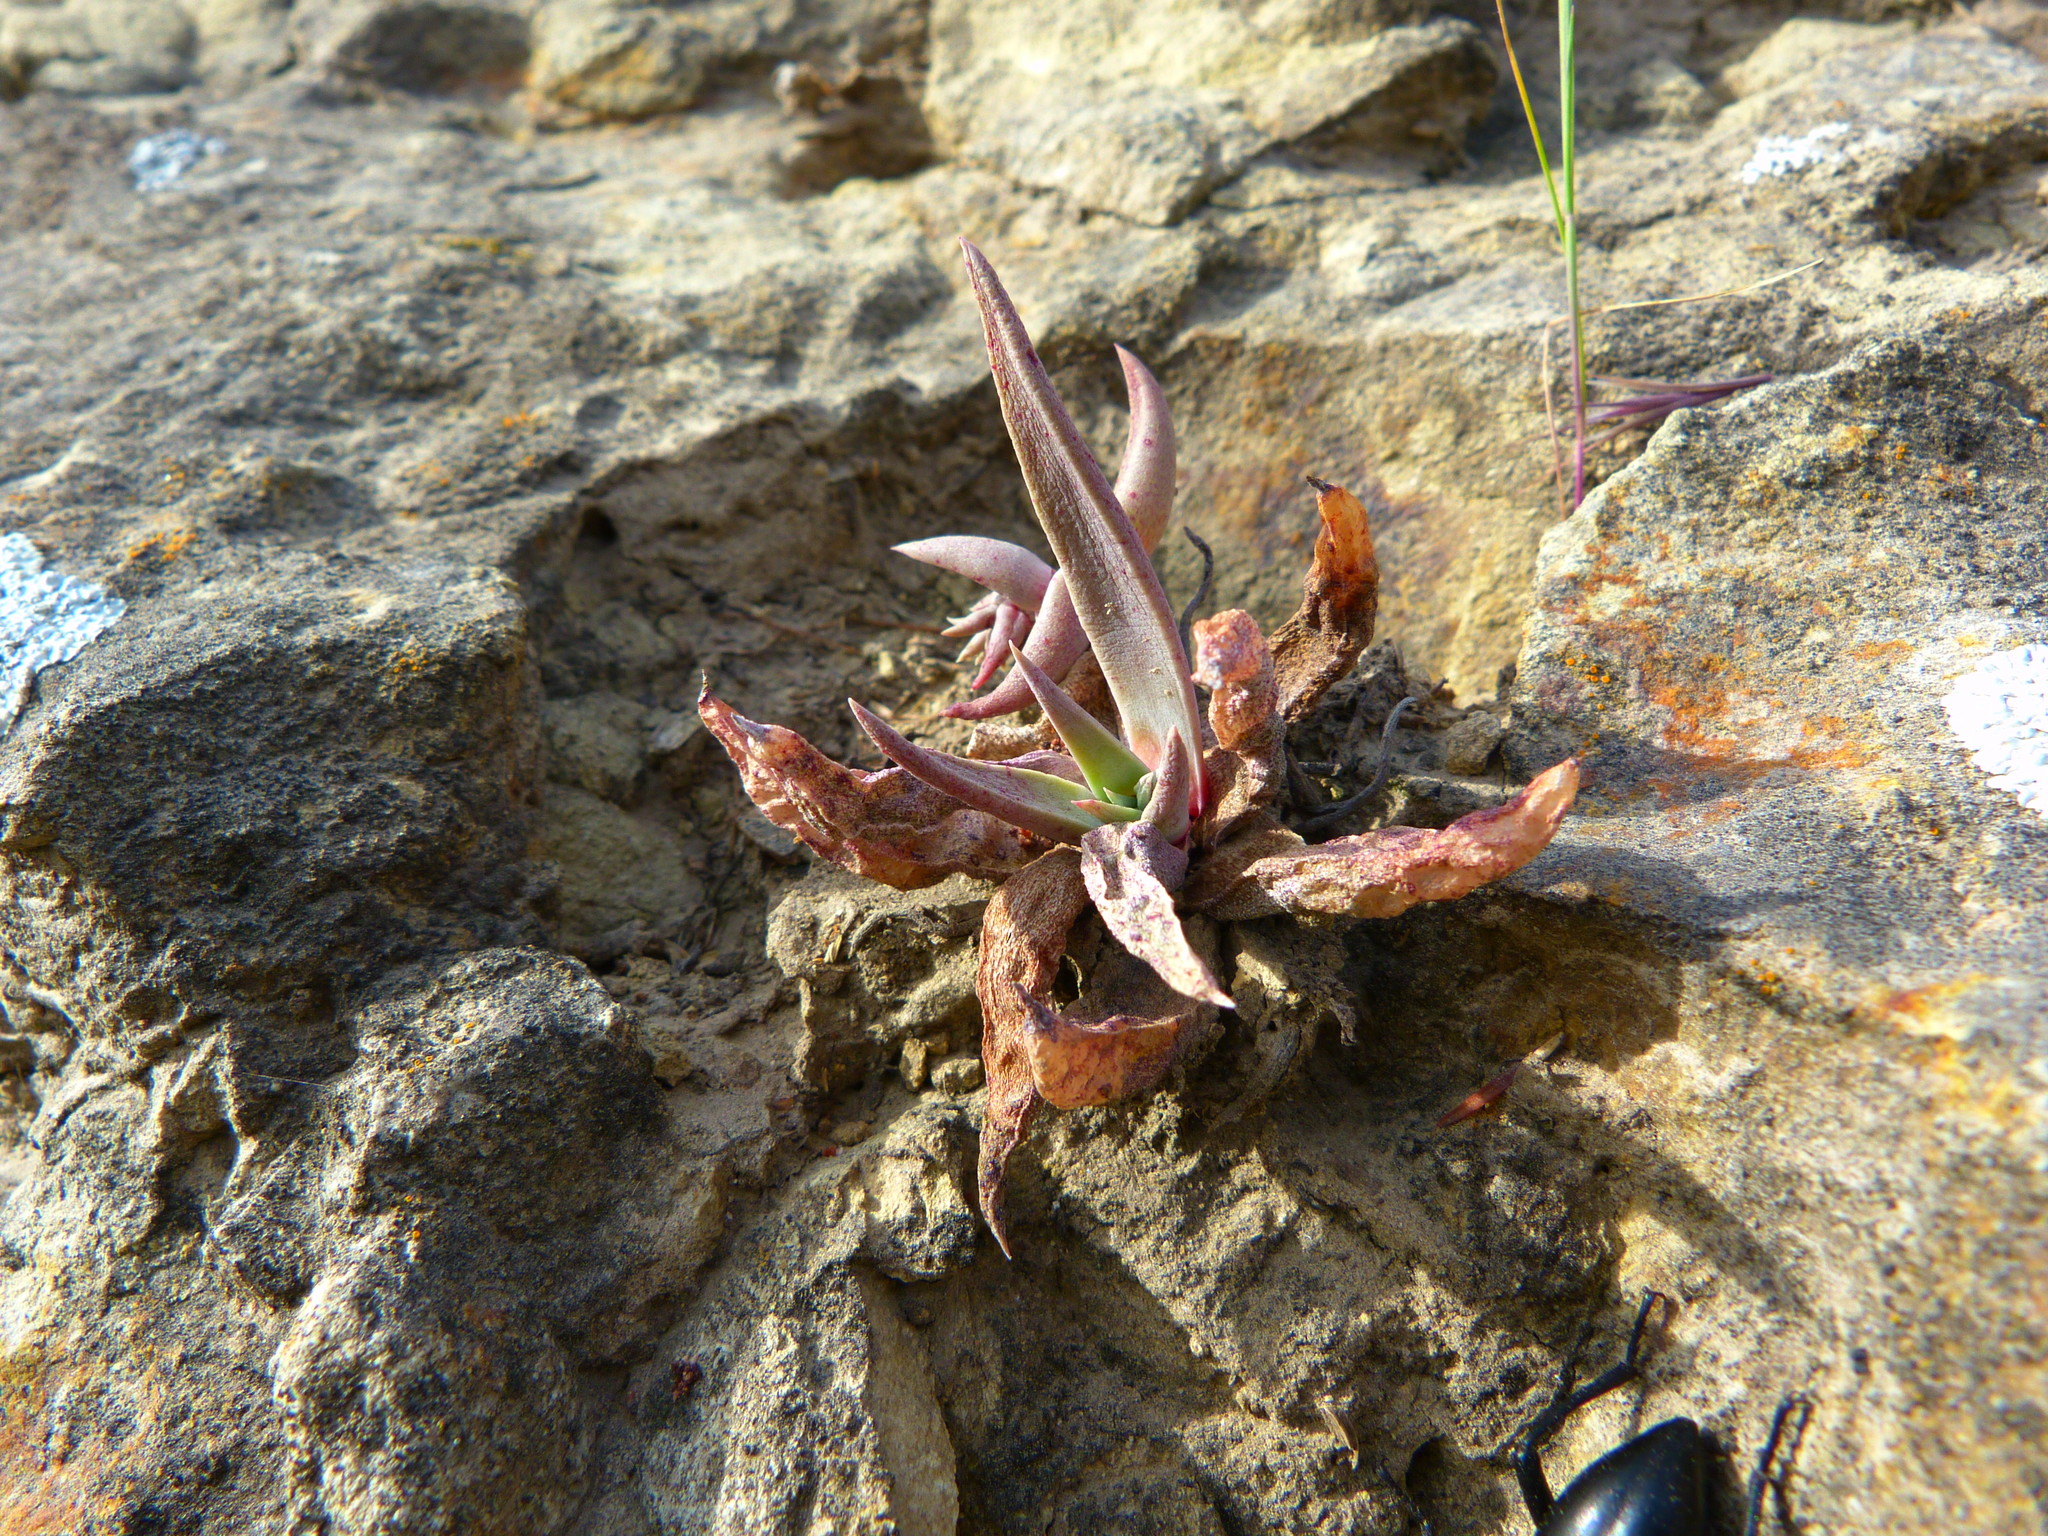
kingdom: Plantae
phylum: Tracheophyta
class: Magnoliopsida
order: Saxifragales
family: Crassulaceae
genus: Dudleya
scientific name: Dudleya verityi
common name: Verity dudleya
